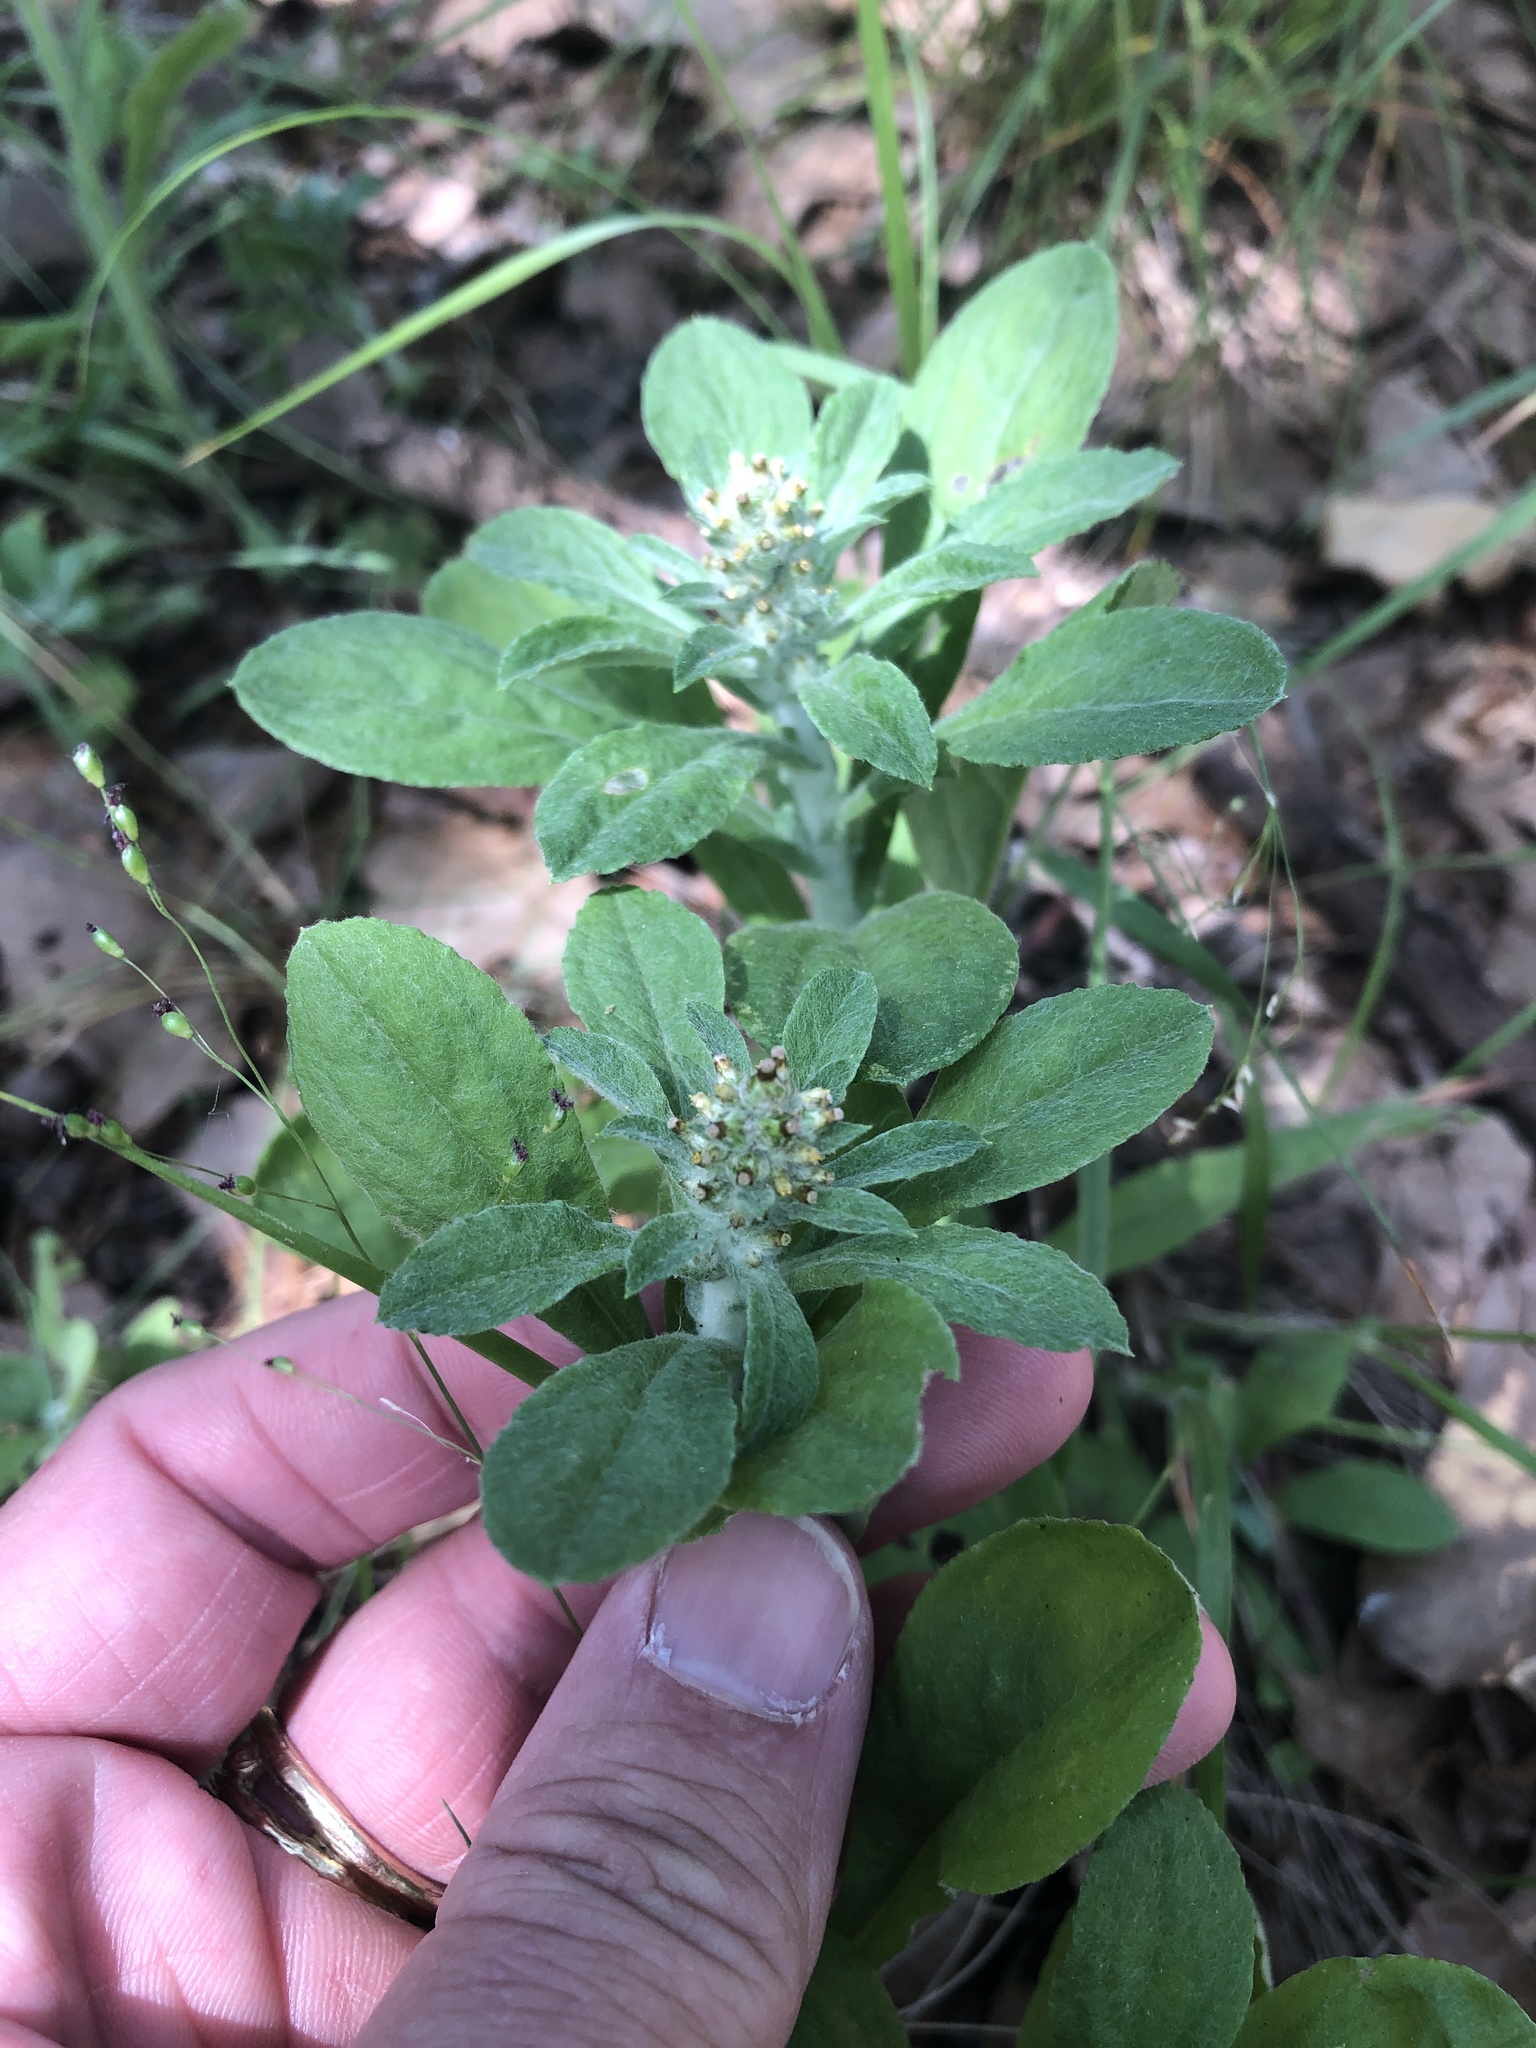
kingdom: Plantae
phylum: Tracheophyta
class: Magnoliopsida
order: Asterales
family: Asteraceae
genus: Gamochaeta
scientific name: Gamochaeta pensylvanica
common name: Pennsylvania everlasting
